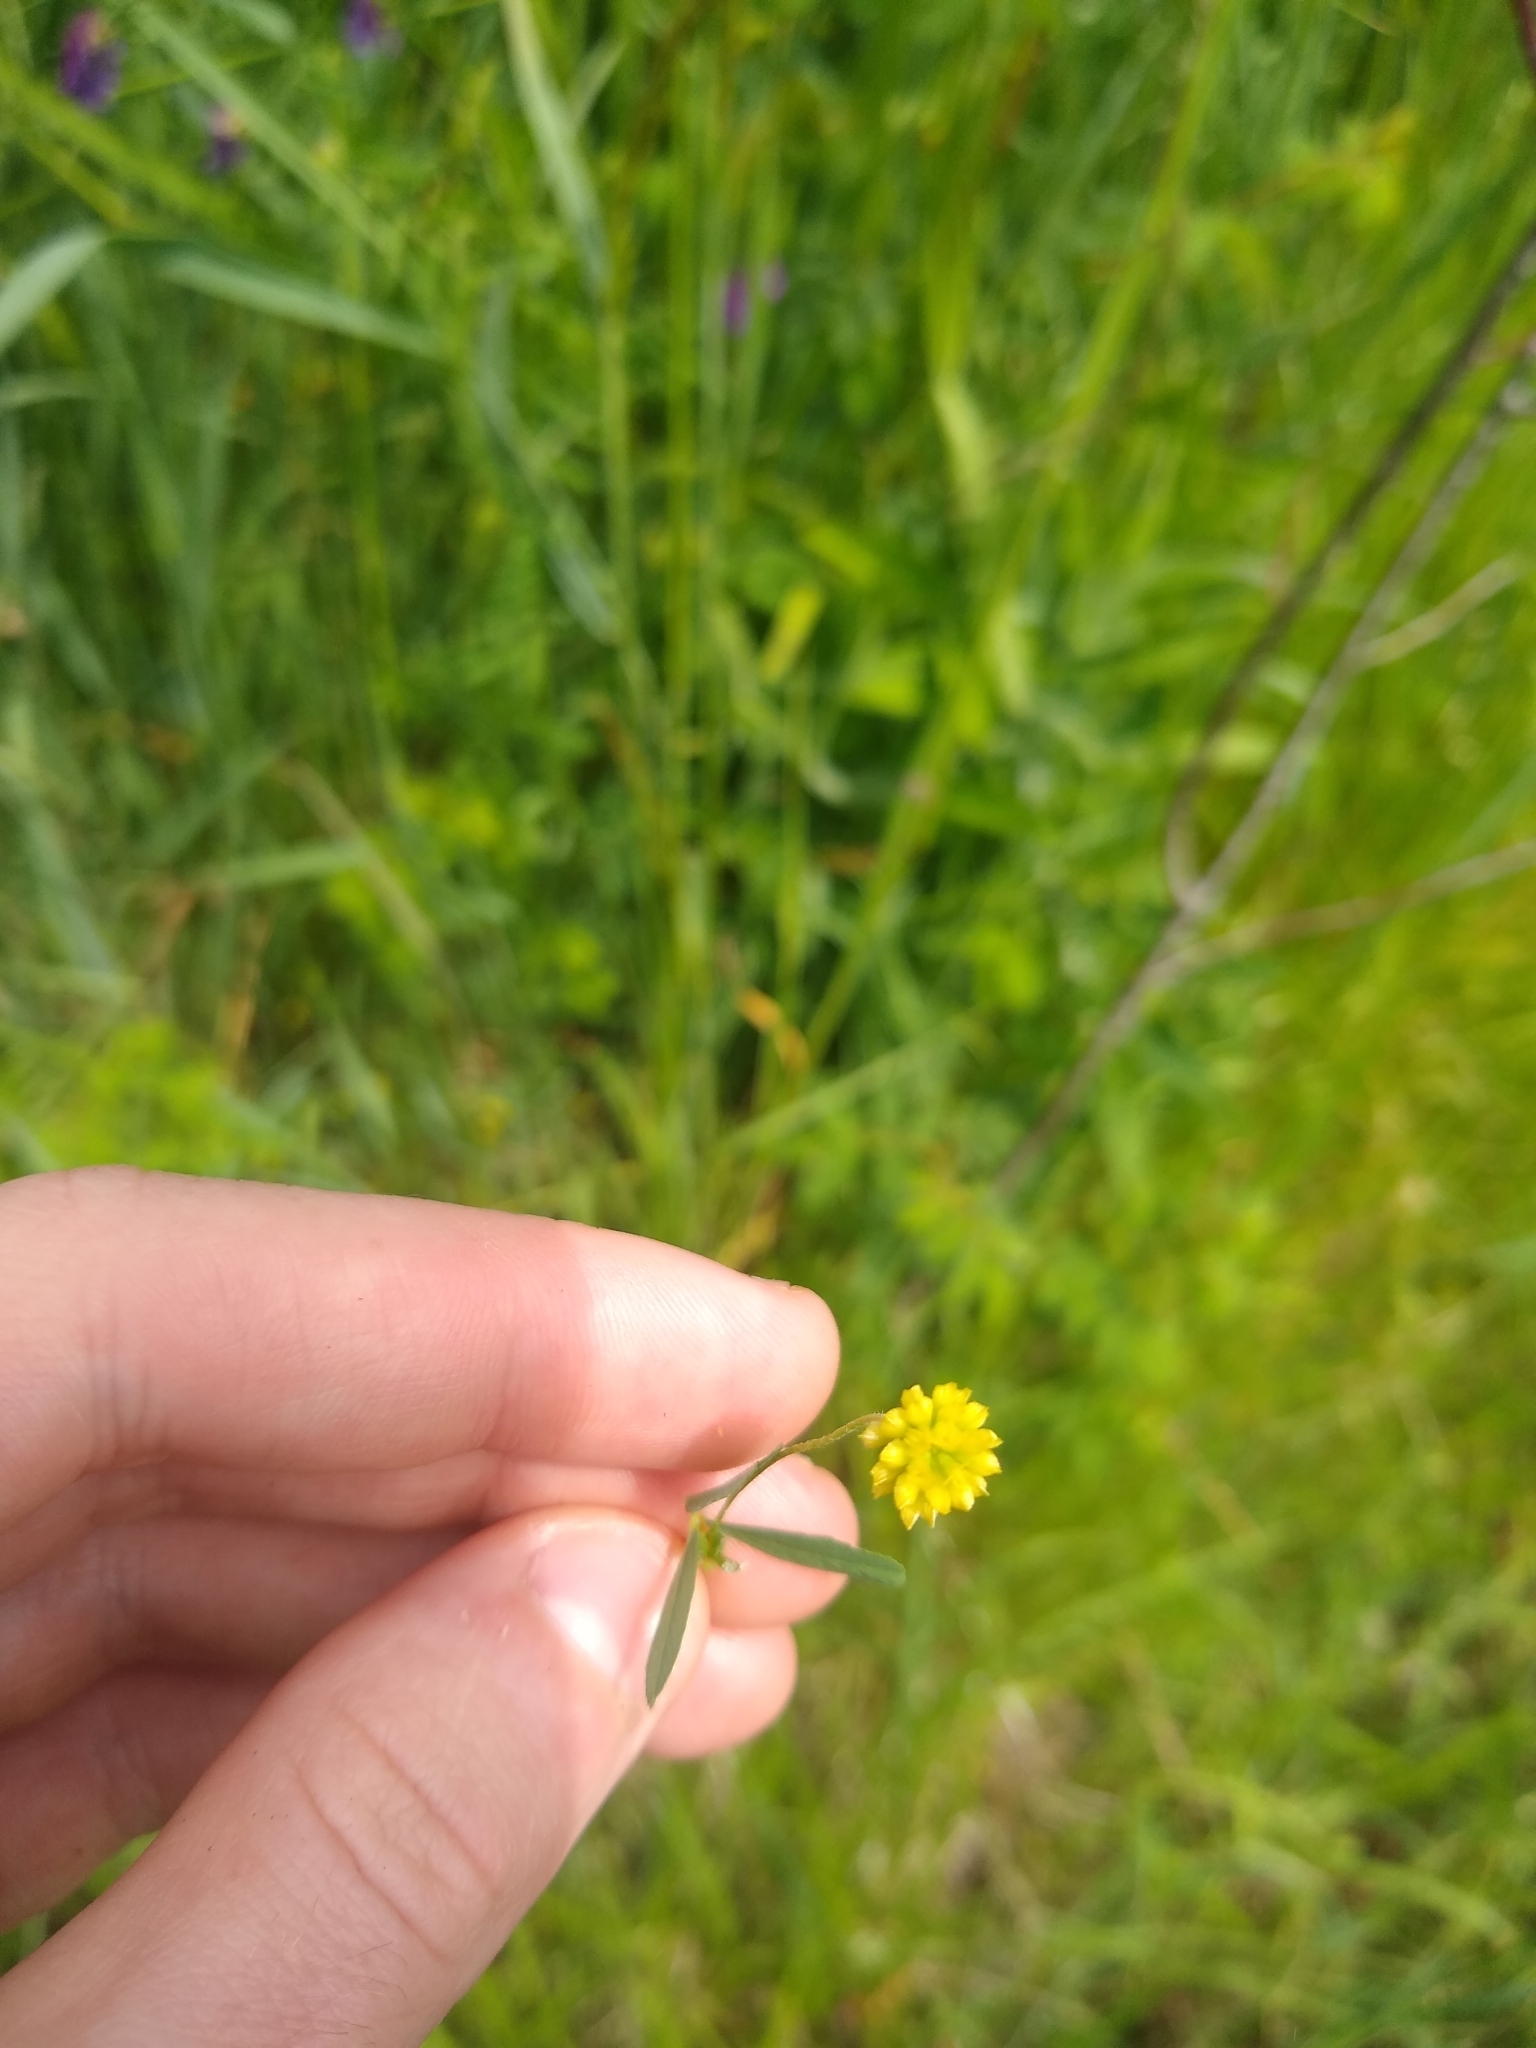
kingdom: Plantae
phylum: Tracheophyta
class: Magnoliopsida
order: Fabales
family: Fabaceae
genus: Trifolium
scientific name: Trifolium dubium
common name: Suckling clover
